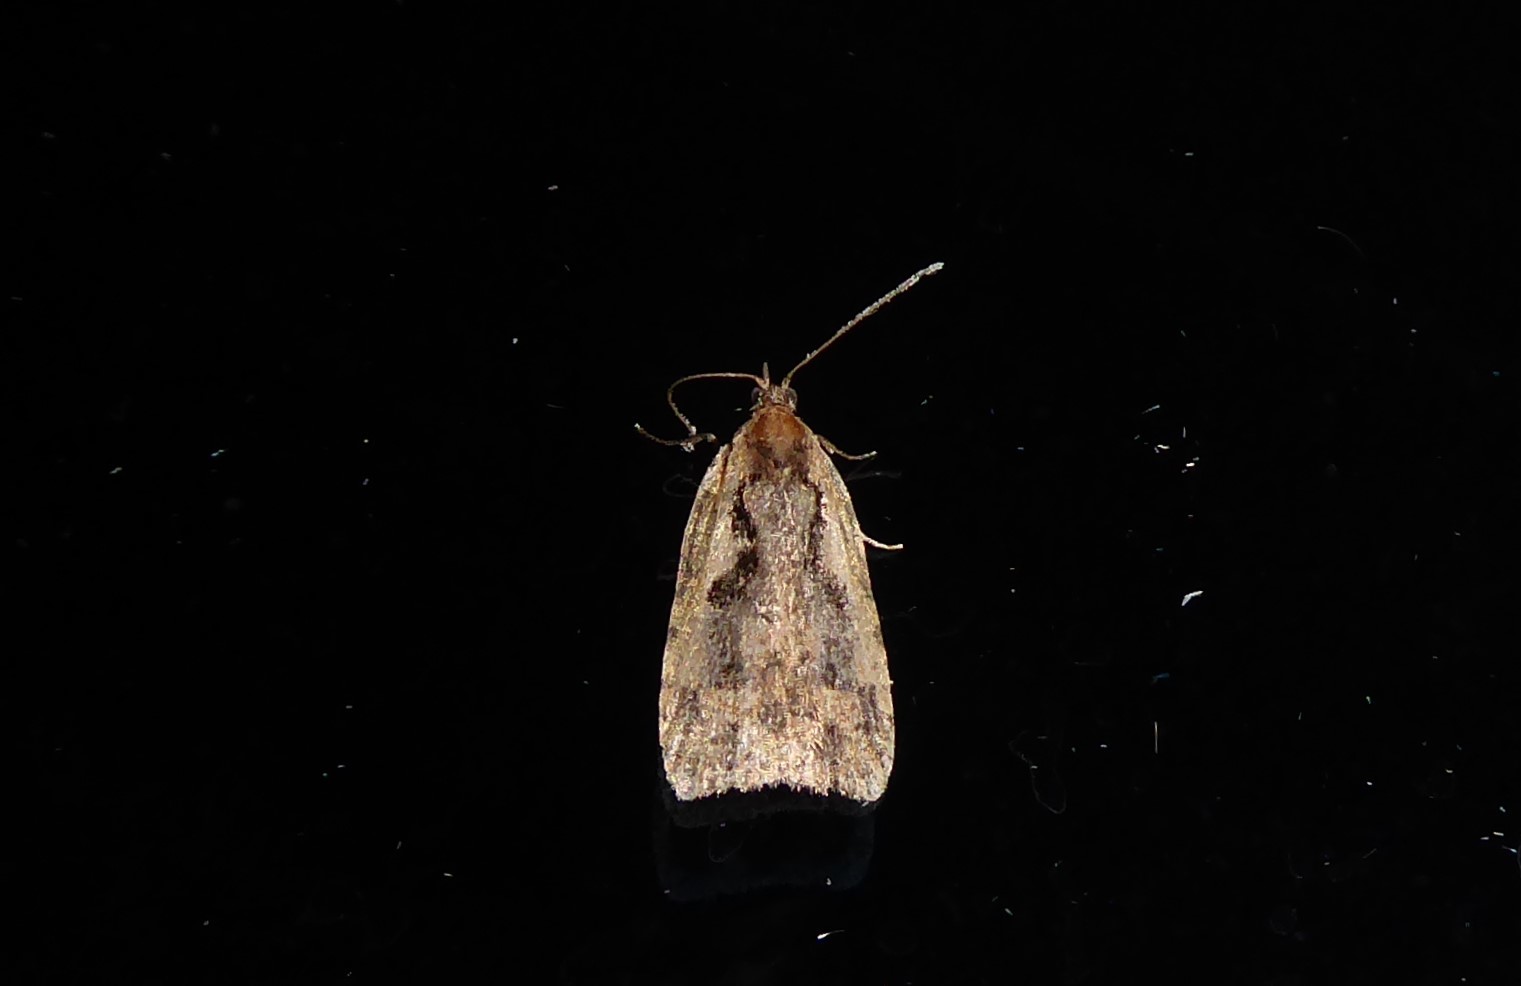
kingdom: Animalia
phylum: Arthropoda
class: Insecta
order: Lepidoptera
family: Tortricidae
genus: Cnephasia
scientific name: Cnephasia jactatana
